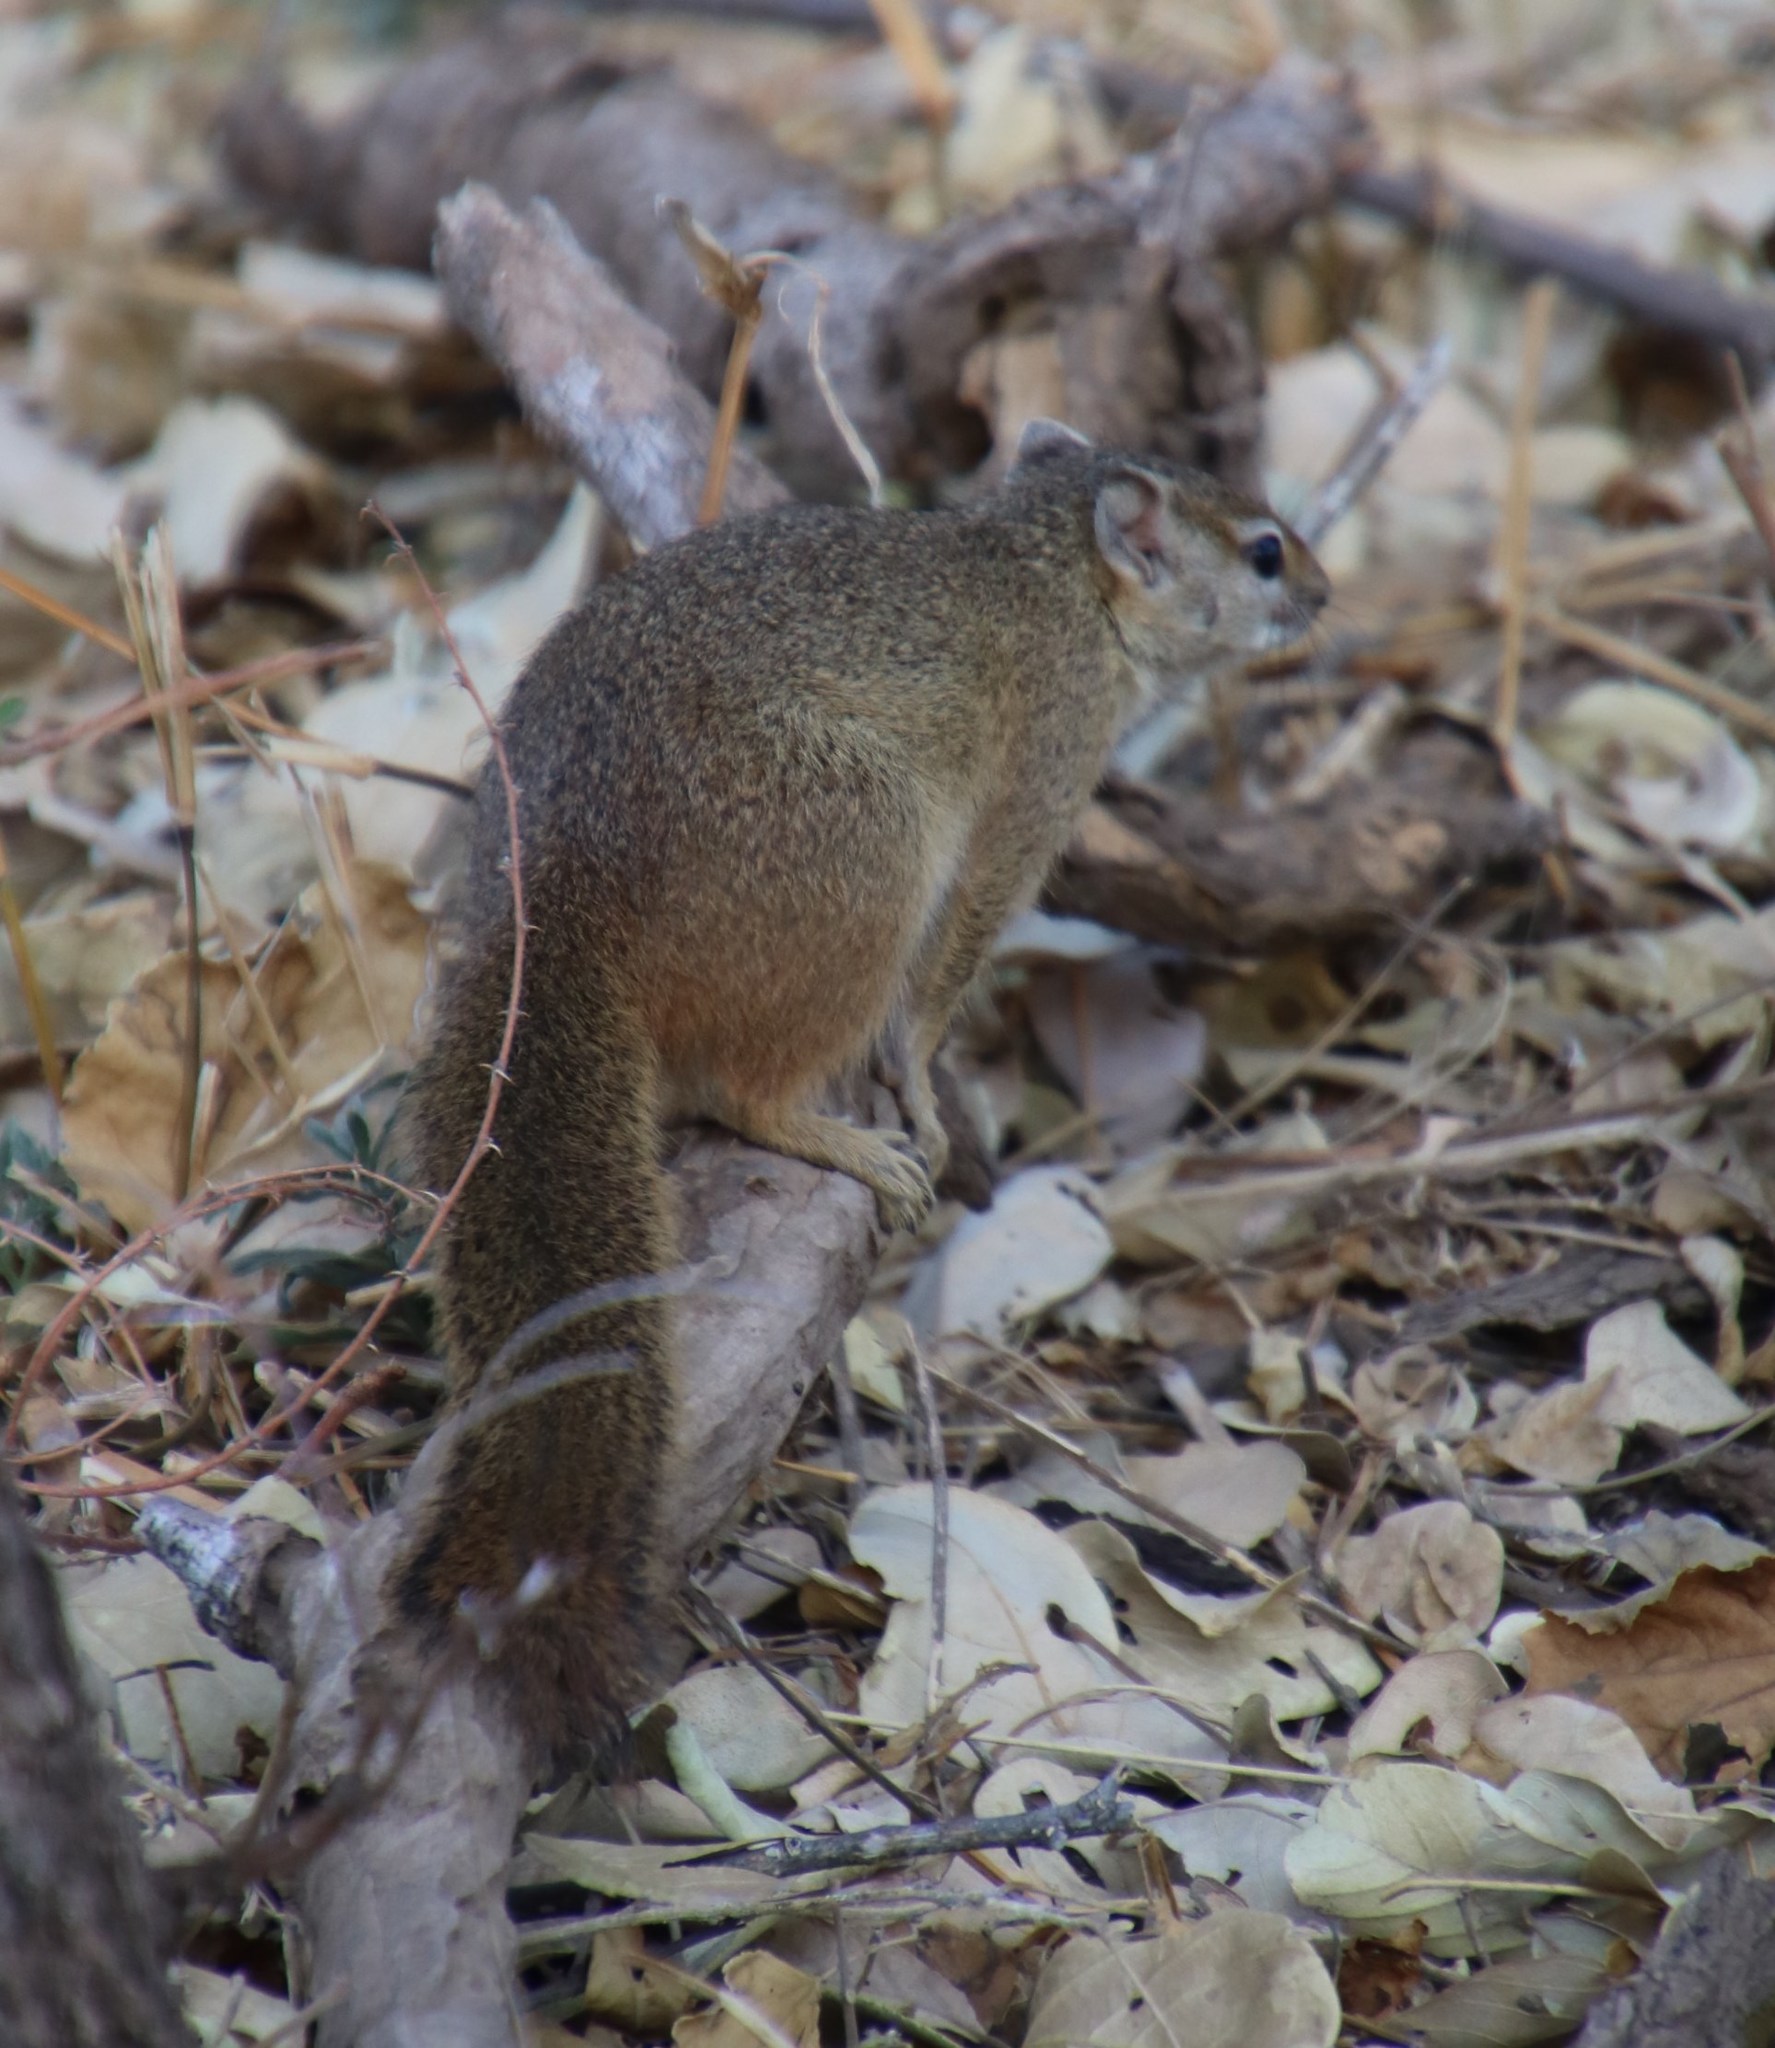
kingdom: Animalia
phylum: Chordata
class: Mammalia
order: Rodentia
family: Sciuridae
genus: Paraxerus
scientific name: Paraxerus cepapi
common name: Smith's bush squirrel
